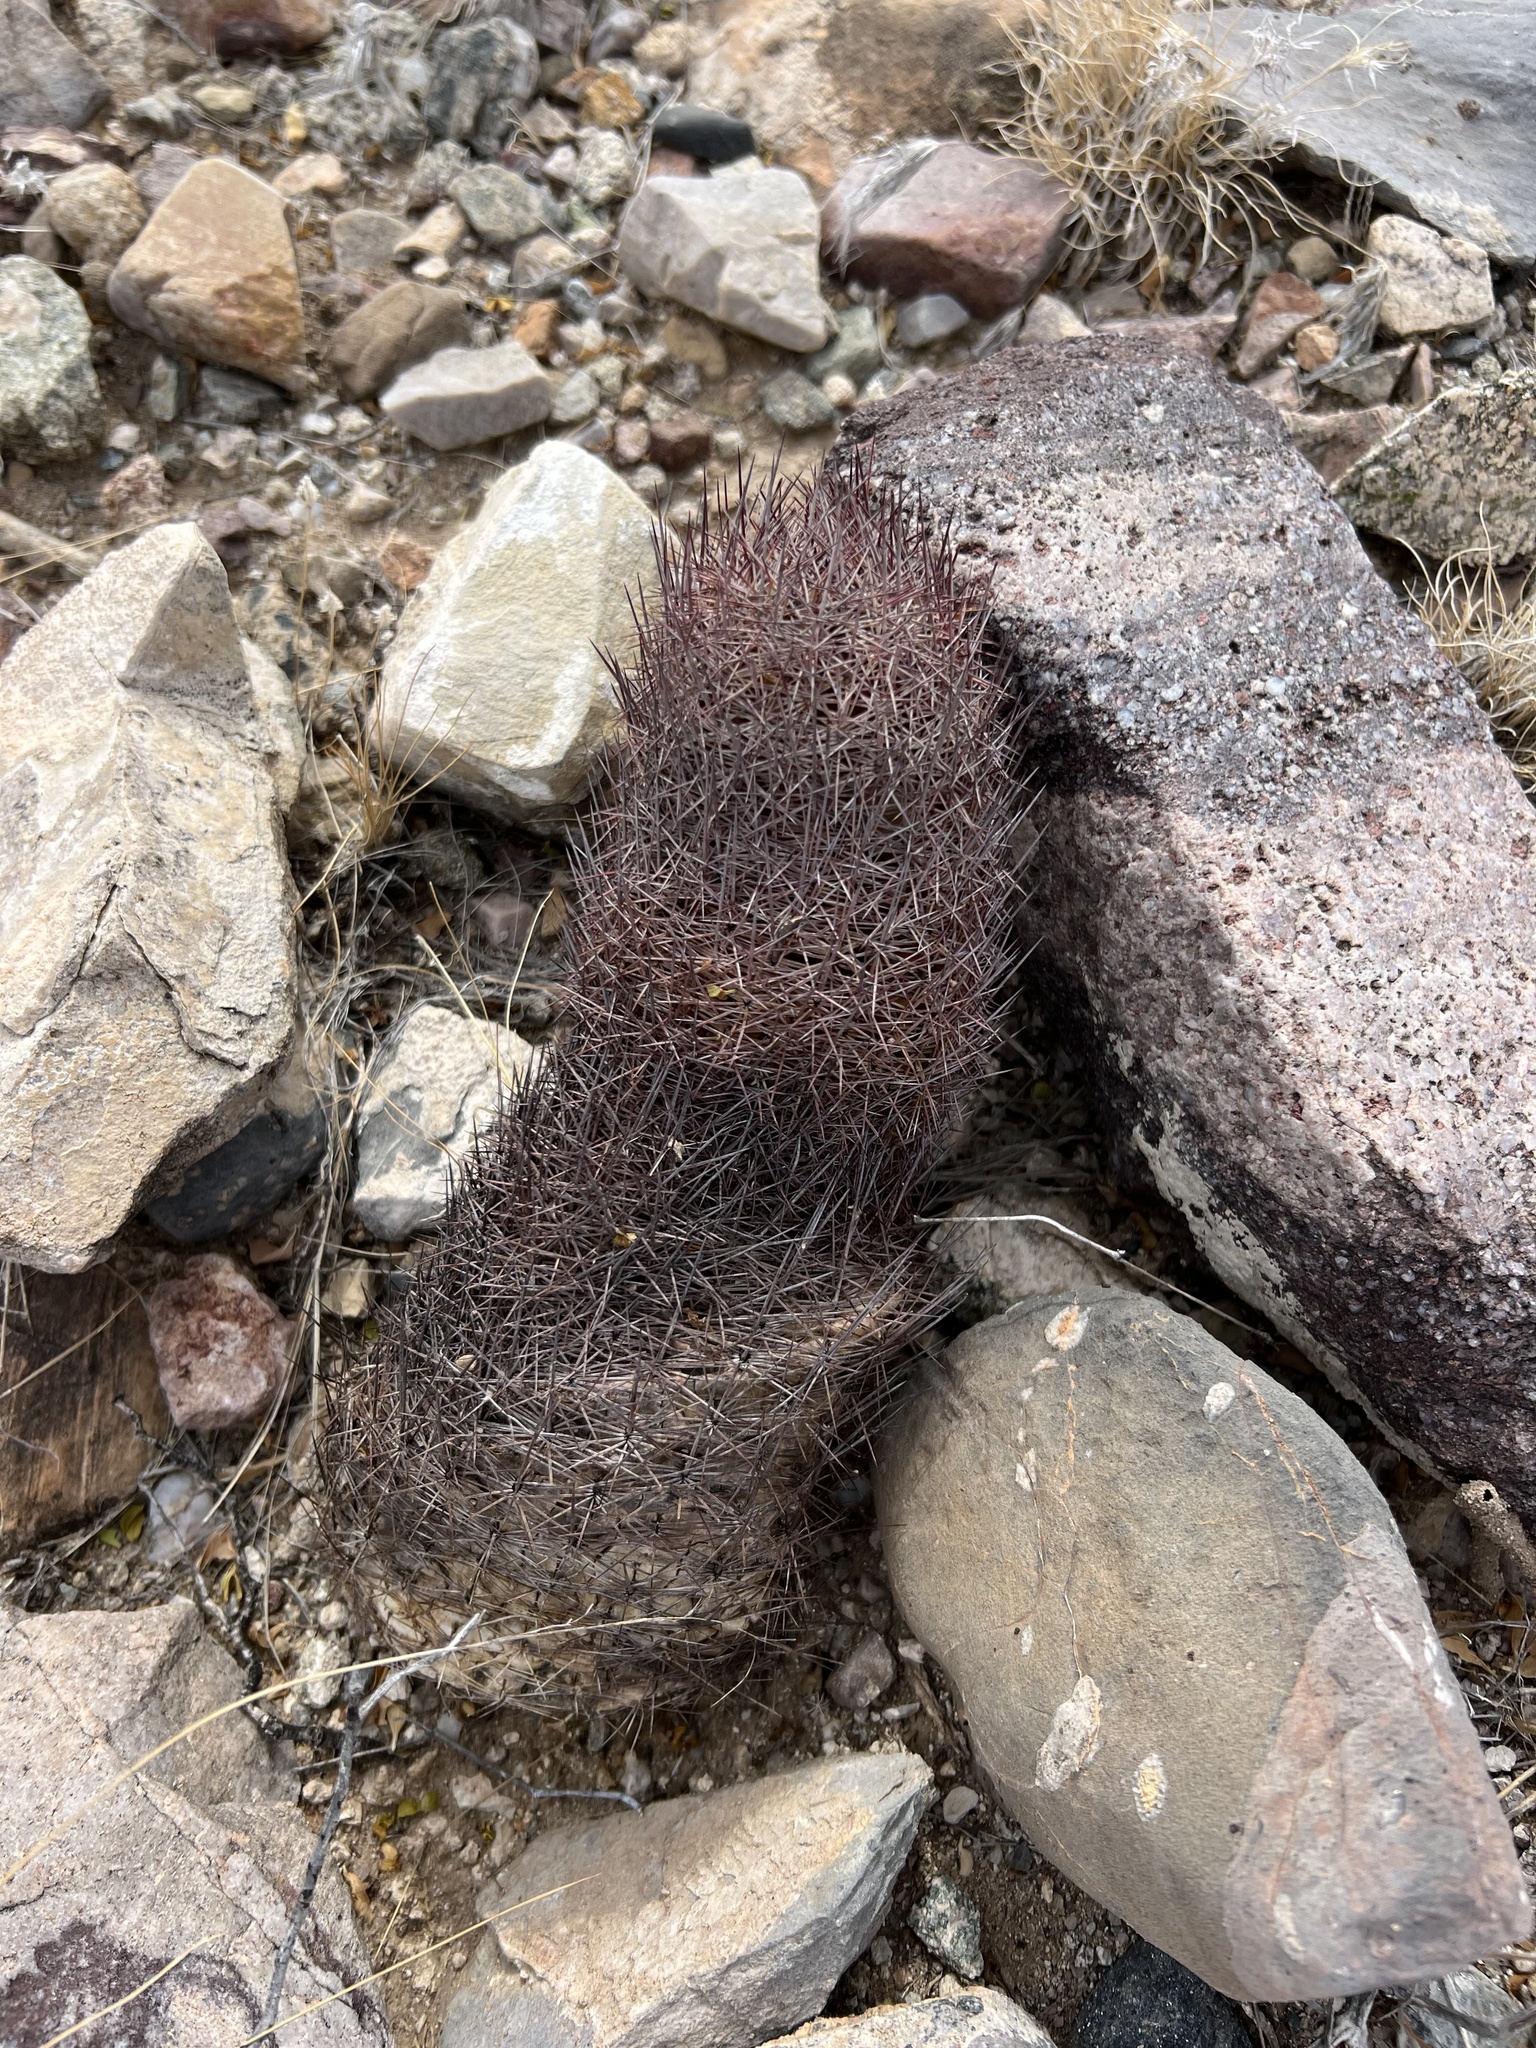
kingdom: Plantae
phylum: Tracheophyta
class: Magnoliopsida
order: Caryophyllales
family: Cactaceae
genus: Sclerocactus
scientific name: Sclerocactus johnsonii
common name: Eight-spine fishhook cactus
